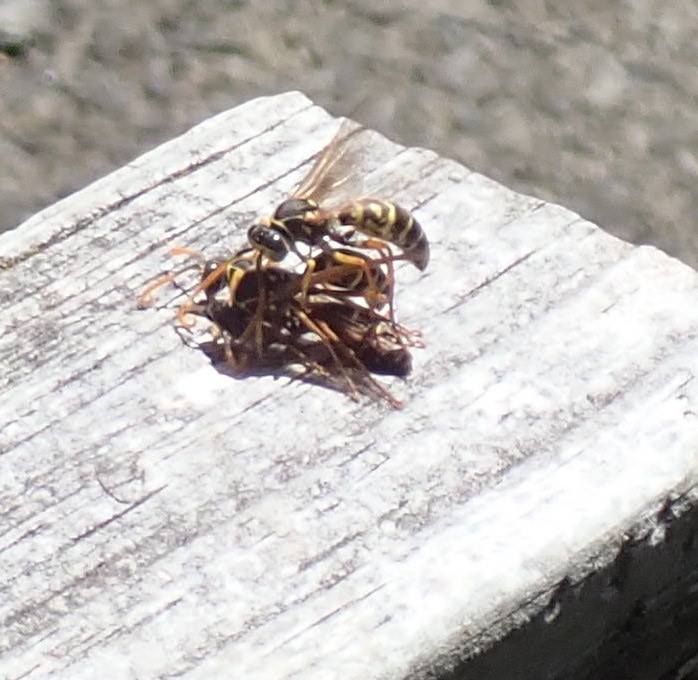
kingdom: Animalia
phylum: Arthropoda
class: Insecta
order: Hymenoptera
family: Eumenidae
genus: Polistes
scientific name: Polistes chinensis
